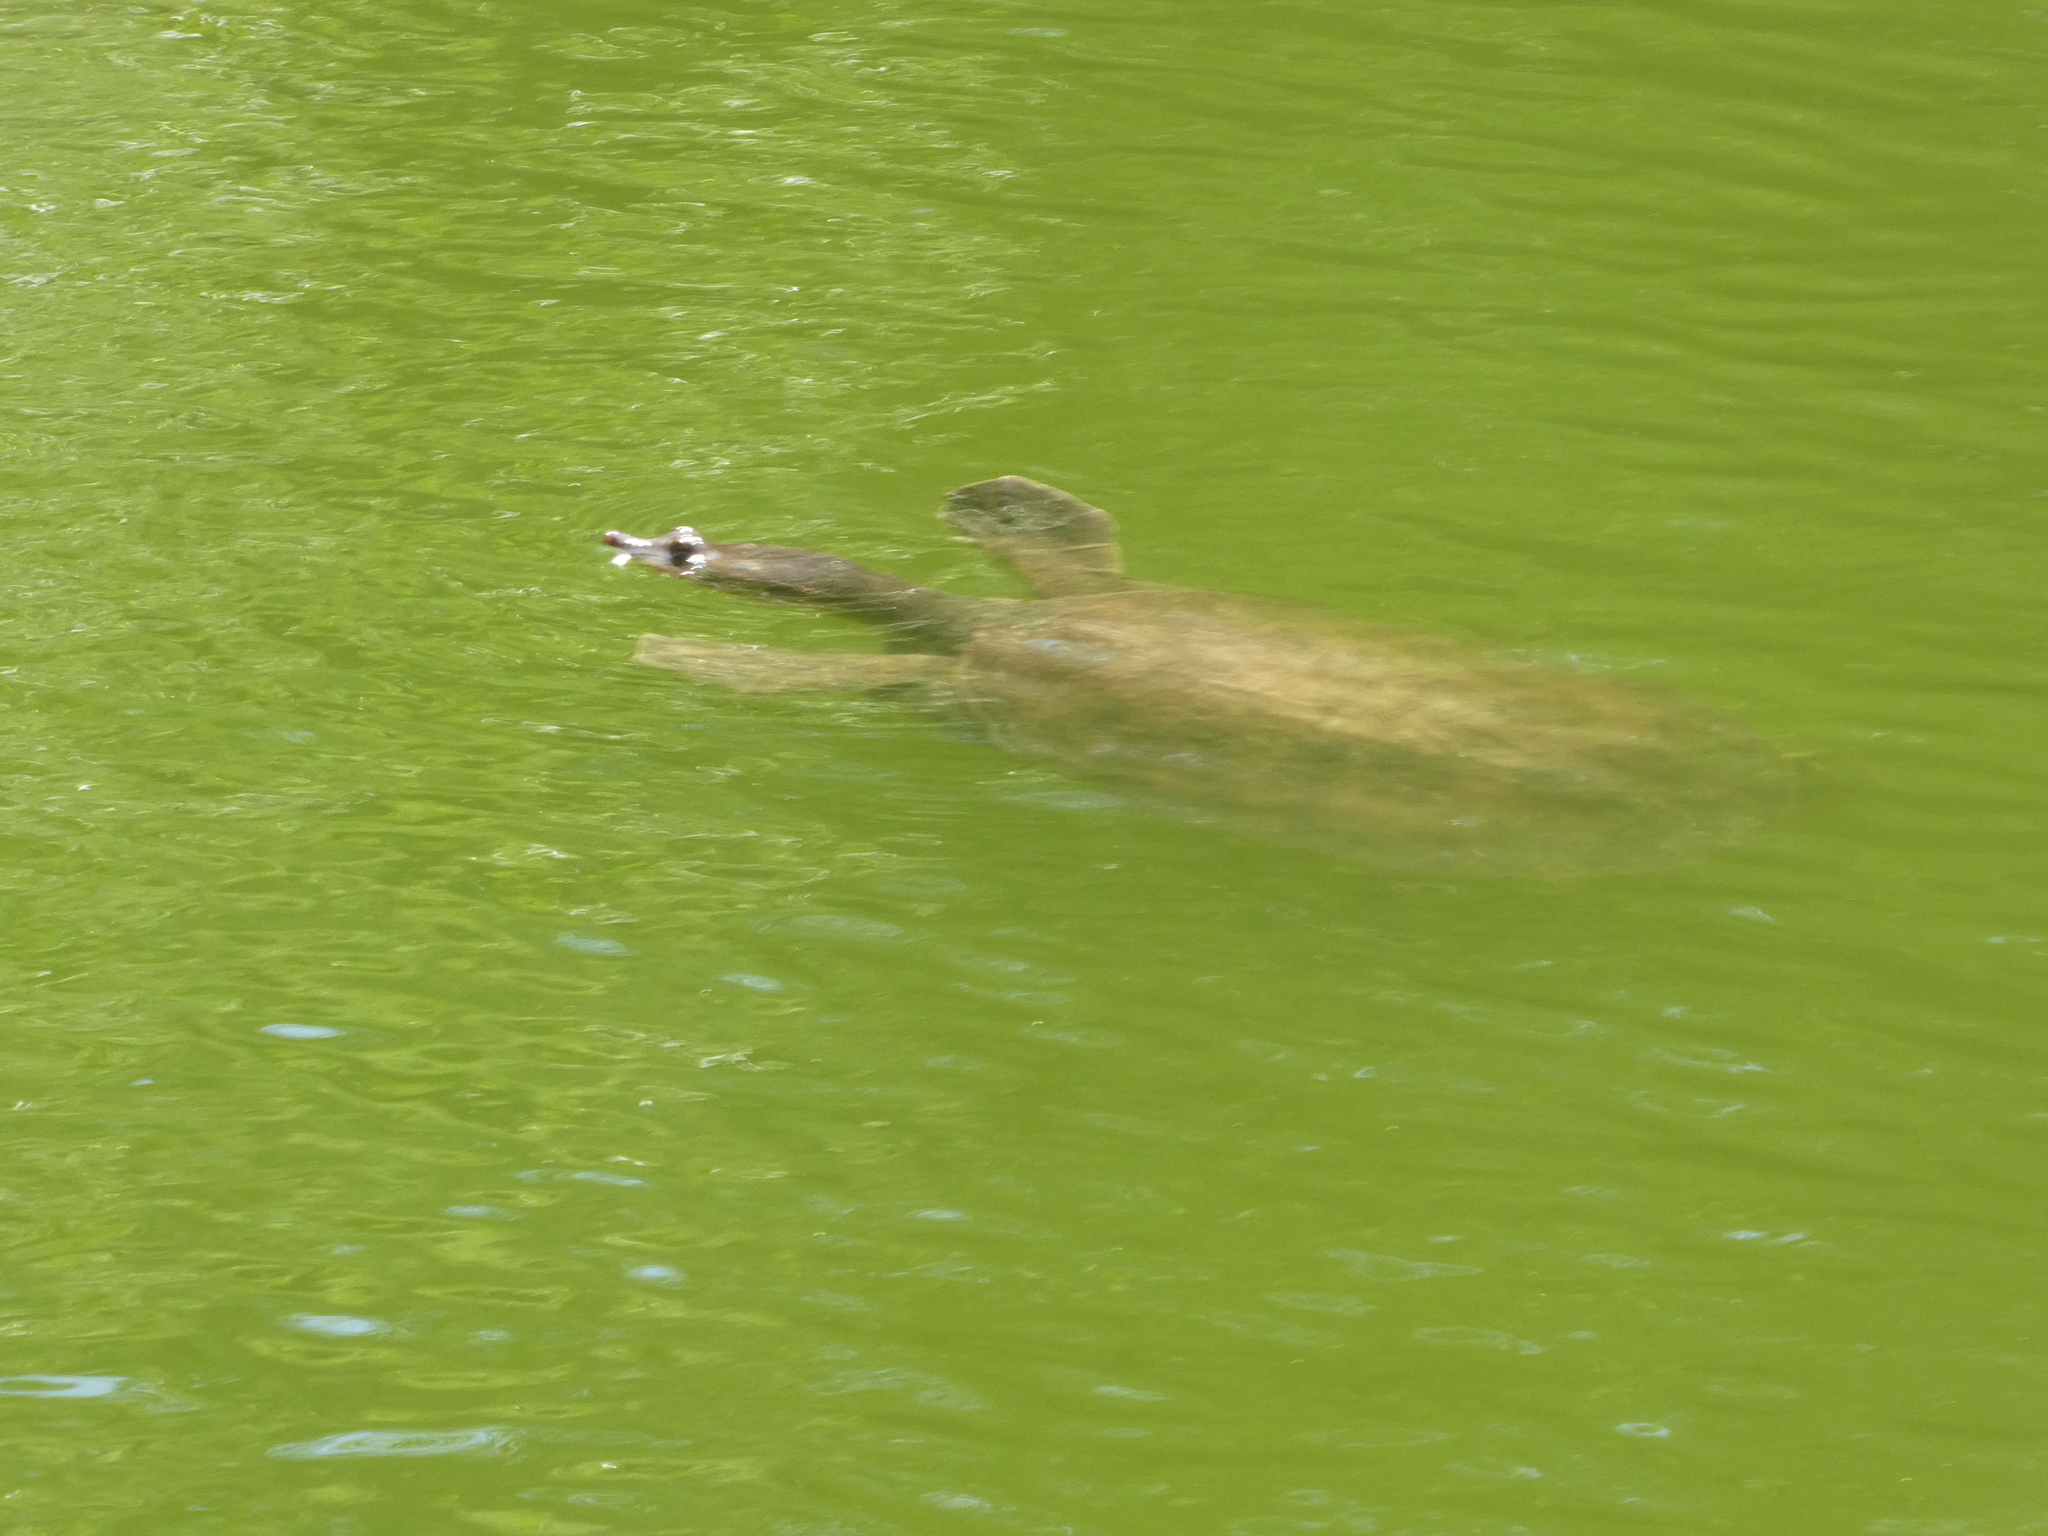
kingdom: Animalia
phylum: Chordata
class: Testudines
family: Trionychidae
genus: Apalone
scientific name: Apalone ferox
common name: Florida softshell turtle
